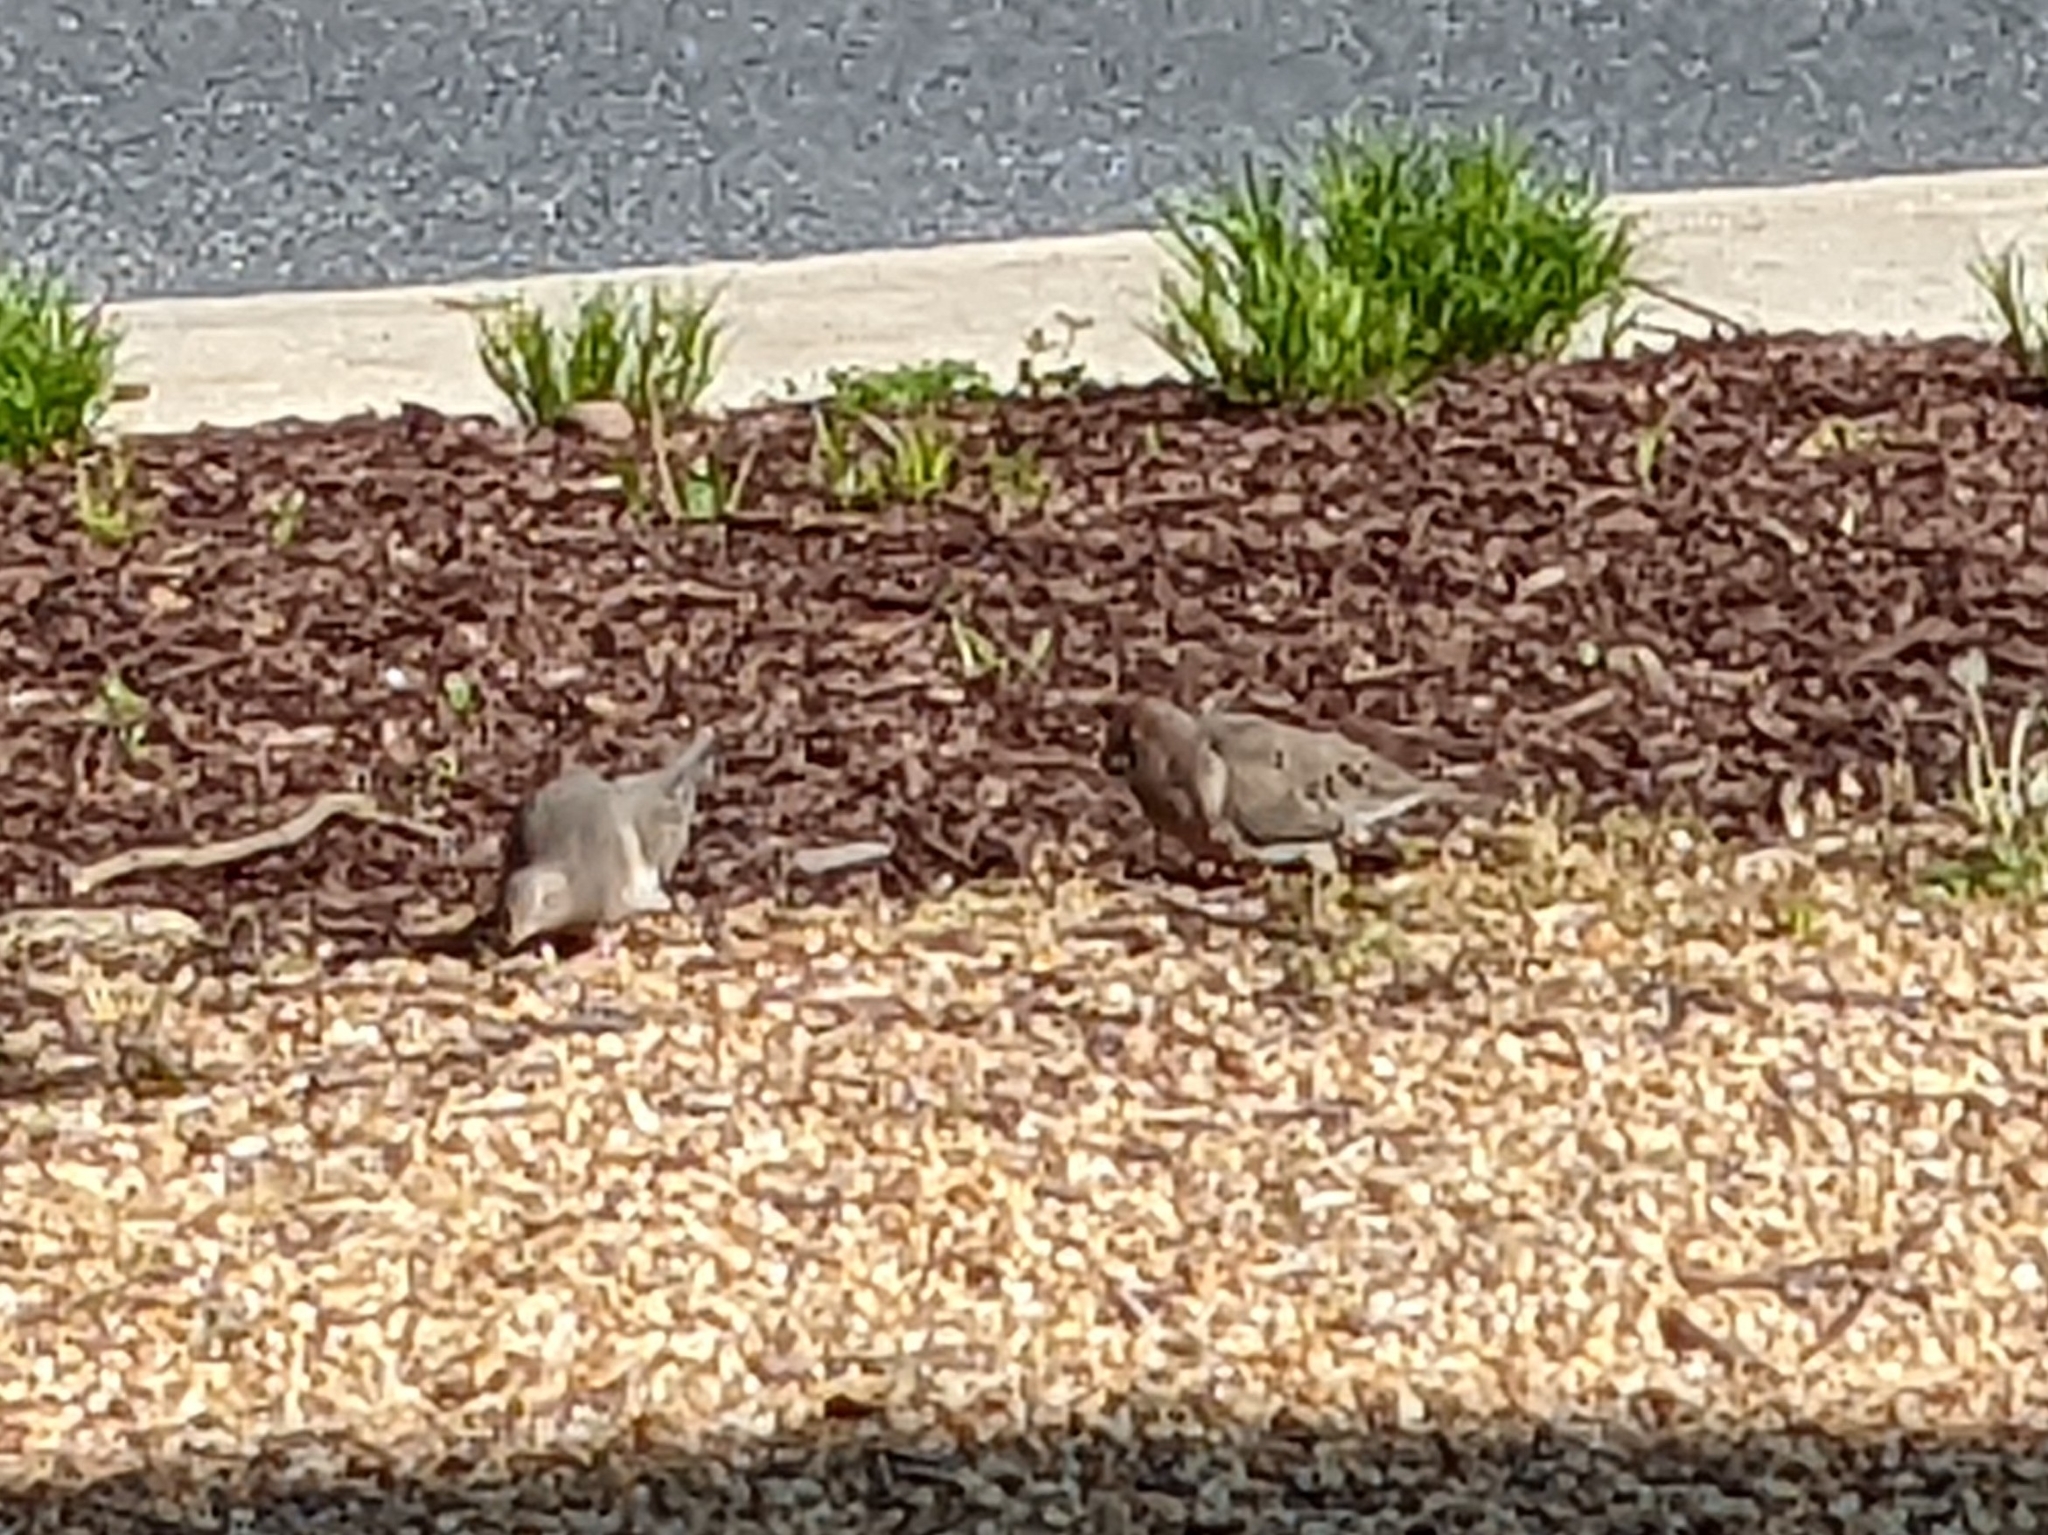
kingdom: Animalia
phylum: Chordata
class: Aves
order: Columbiformes
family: Columbidae
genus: Zenaida
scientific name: Zenaida macroura
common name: Mourning dove
